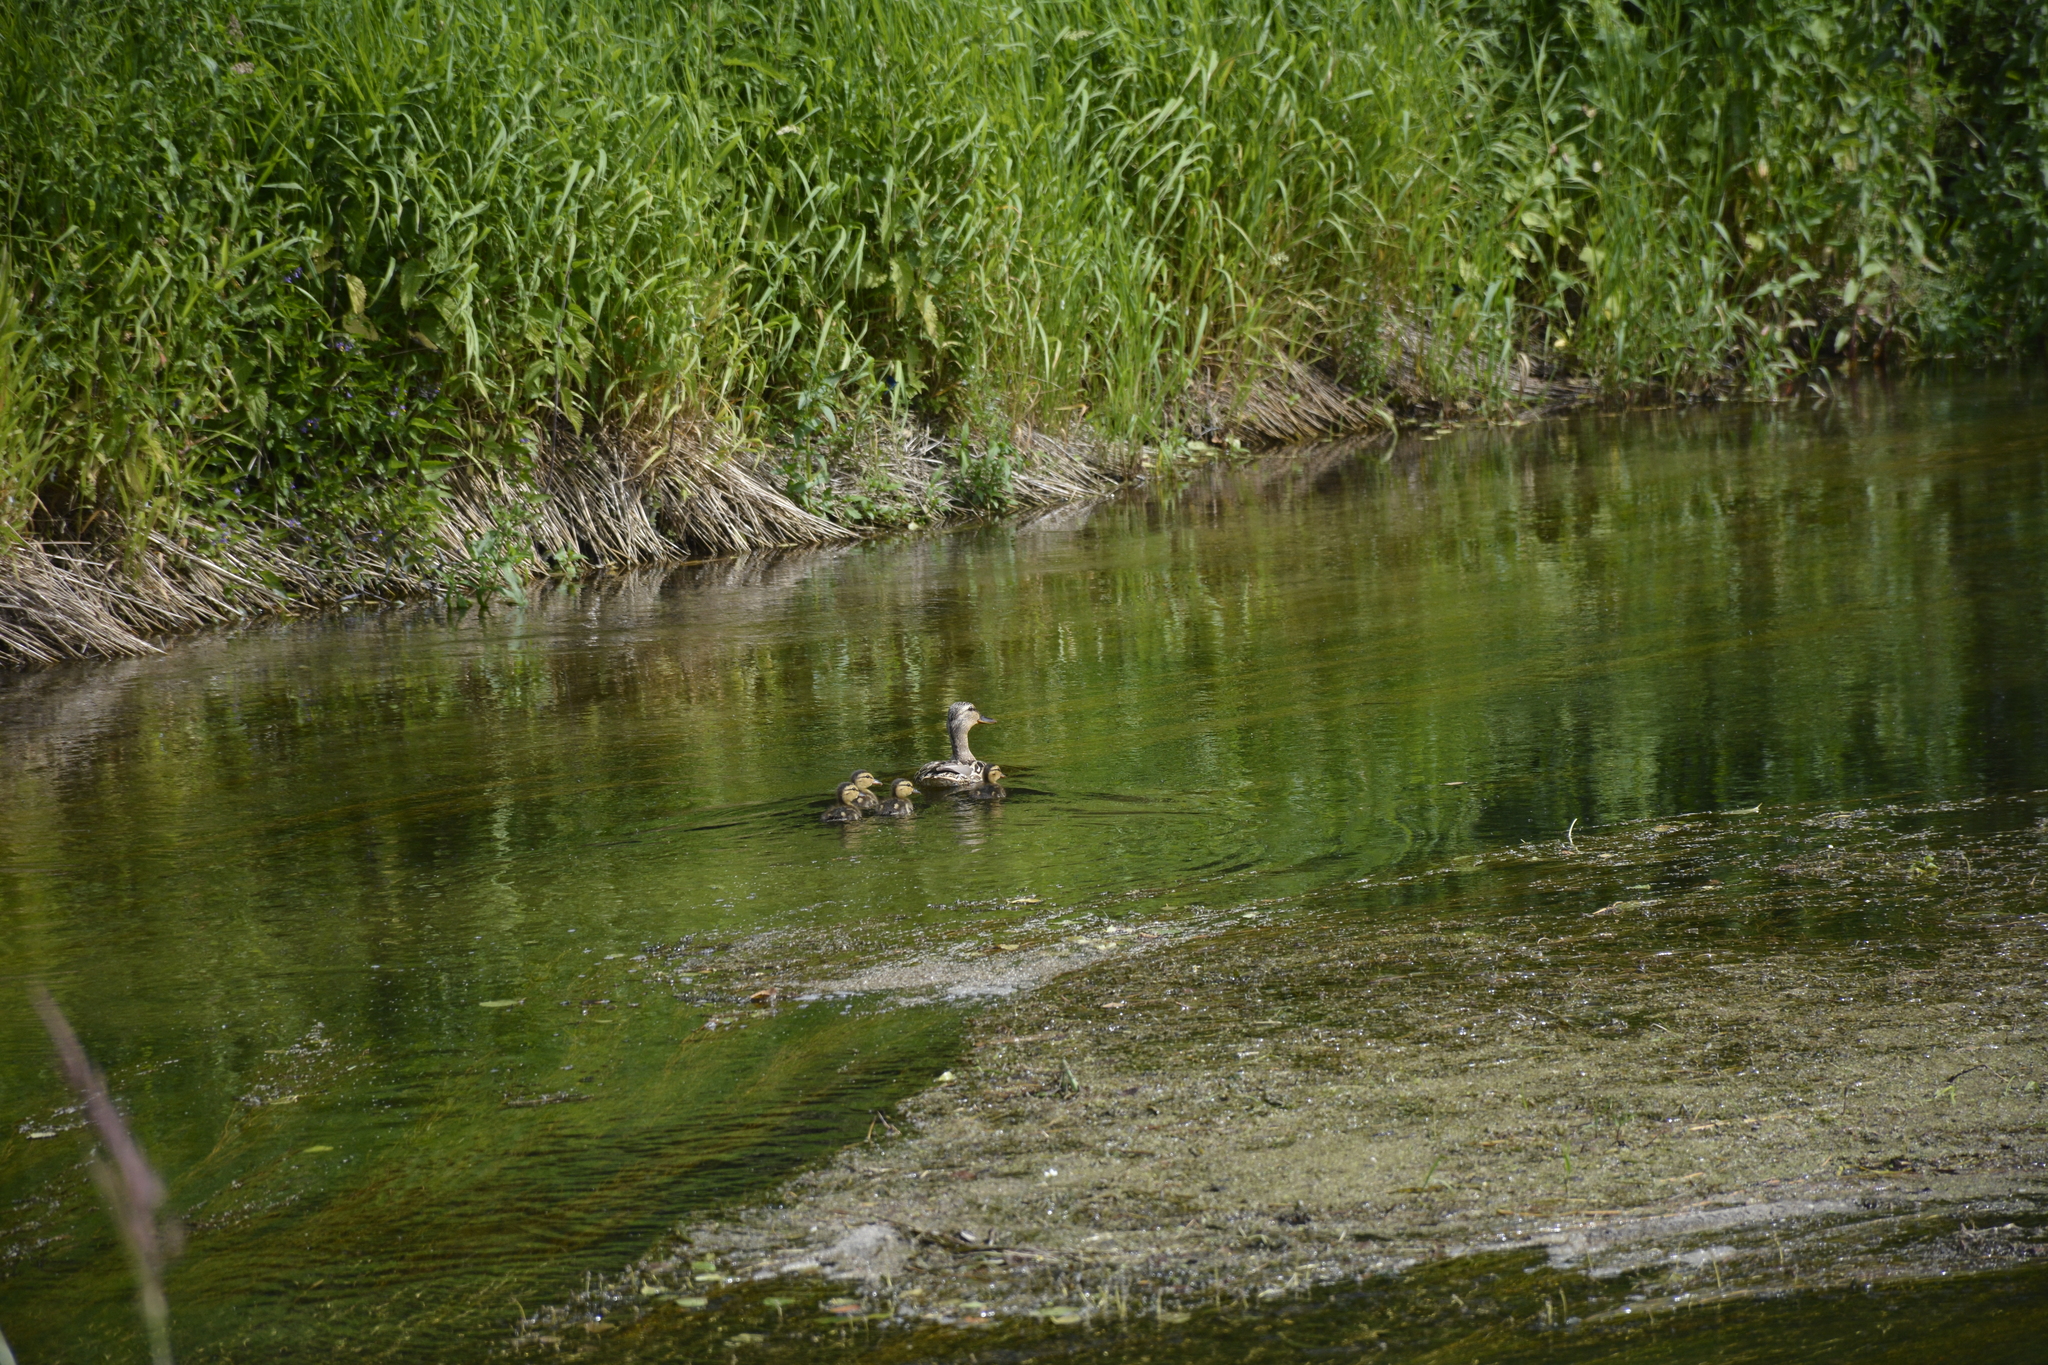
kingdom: Animalia
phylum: Chordata
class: Aves
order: Anseriformes
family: Anatidae
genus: Anas
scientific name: Anas platyrhynchos
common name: Mallard
